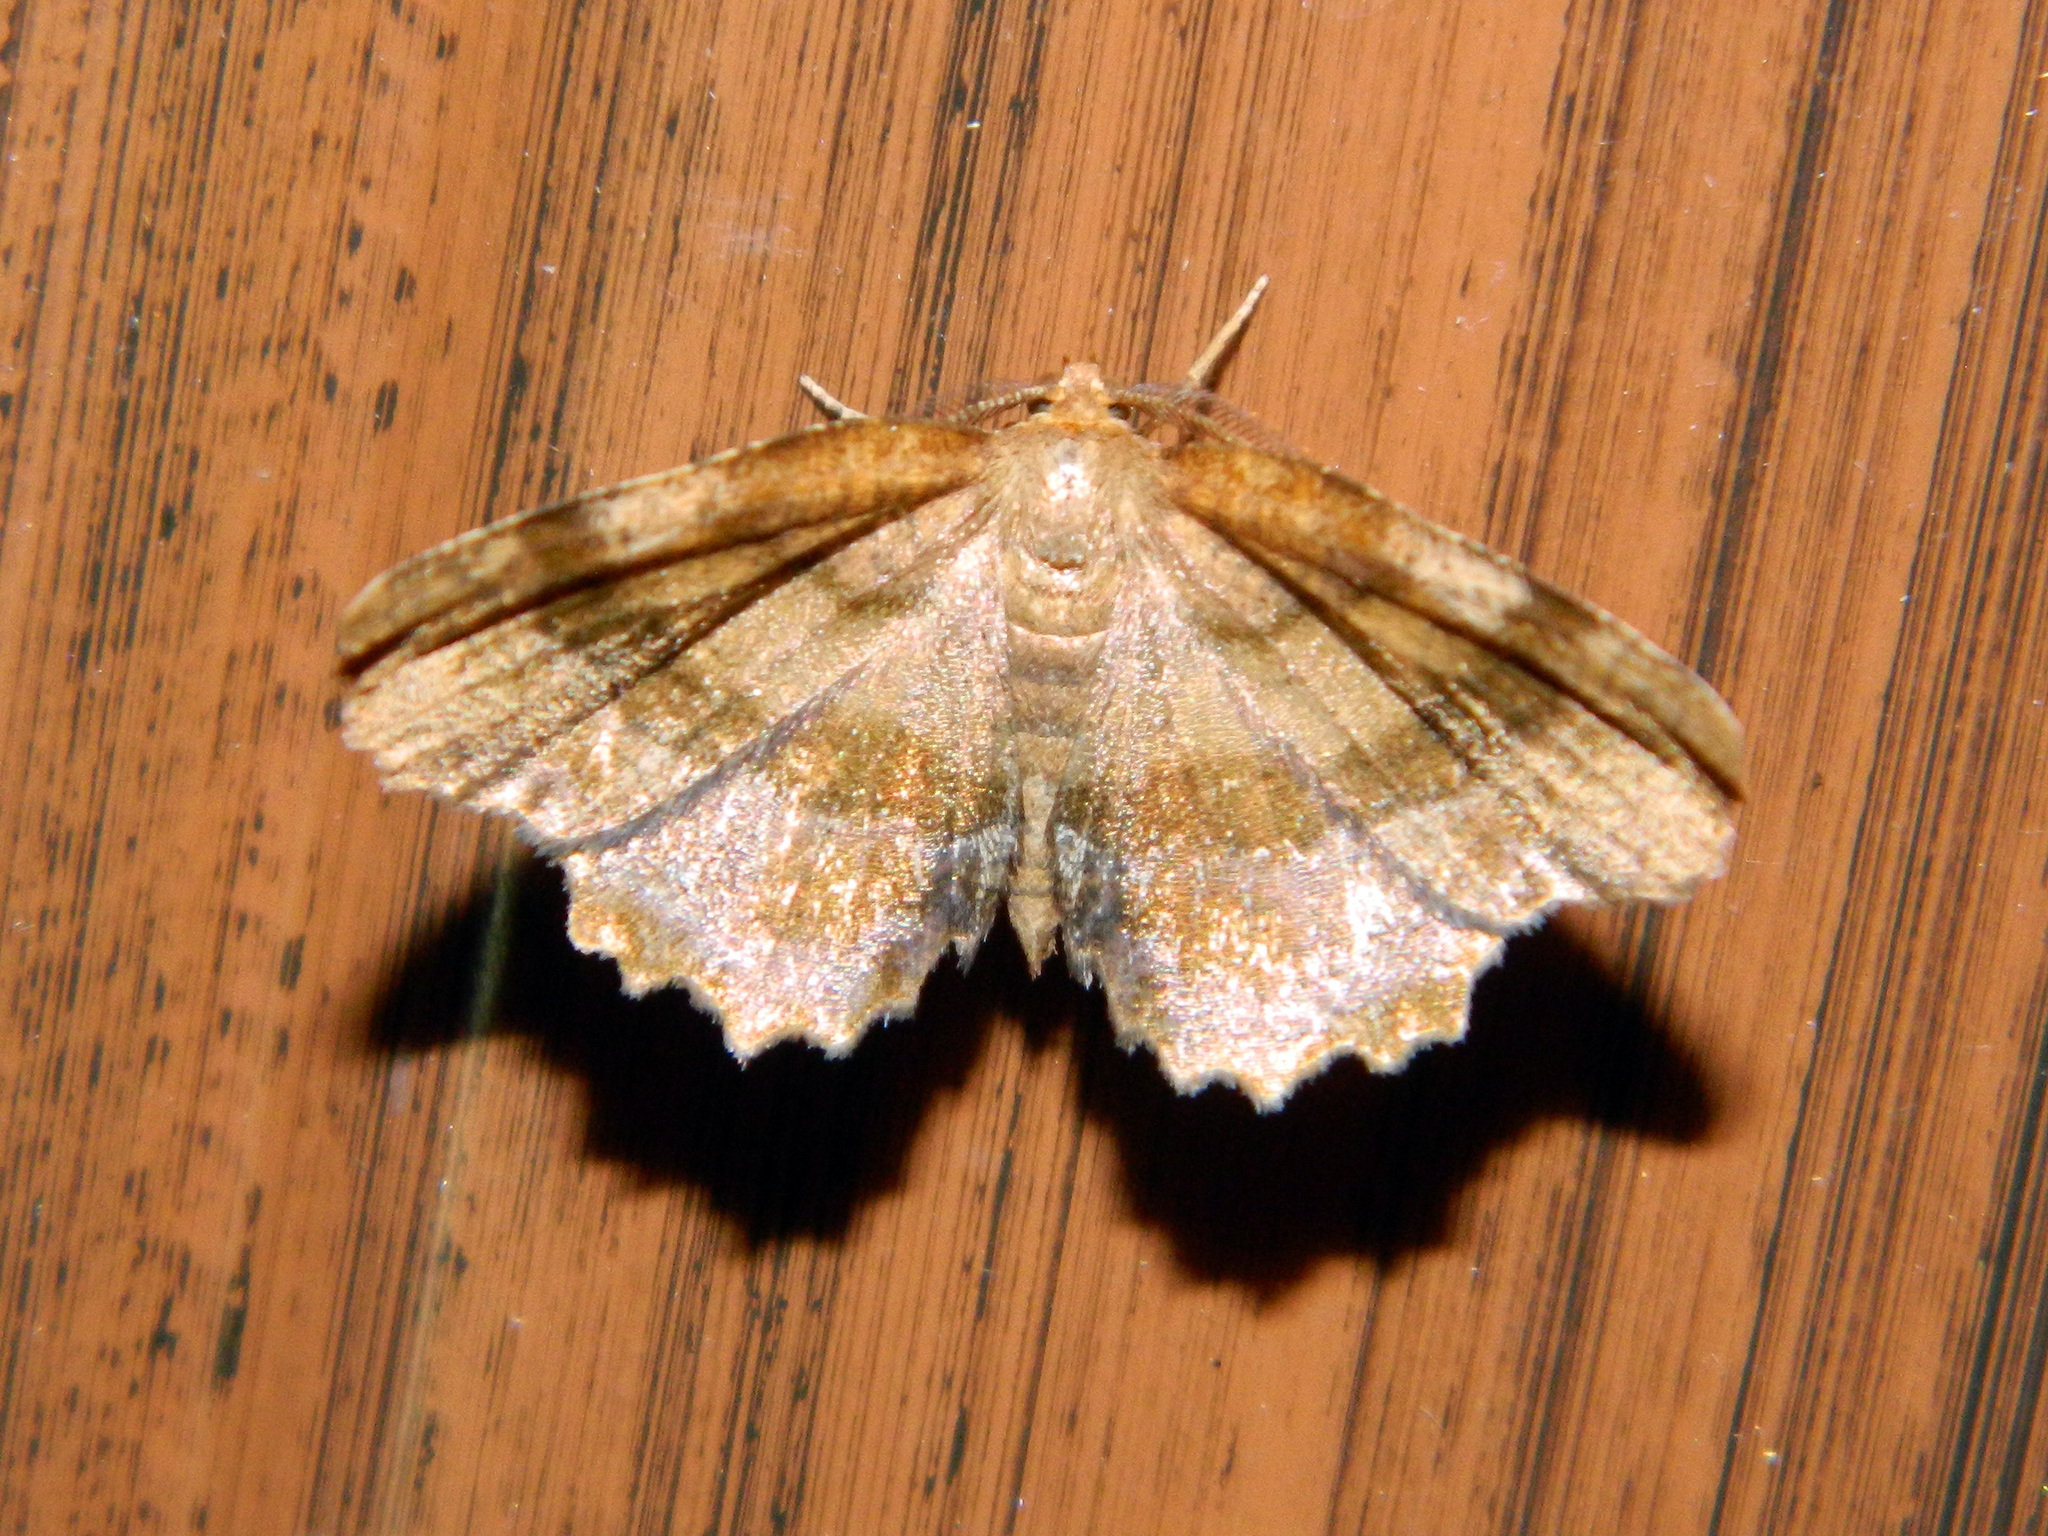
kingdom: Animalia
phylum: Arthropoda
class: Insecta
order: Lepidoptera
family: Geometridae
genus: Cepphis
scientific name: Cepphis armataria
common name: Scallop moth
